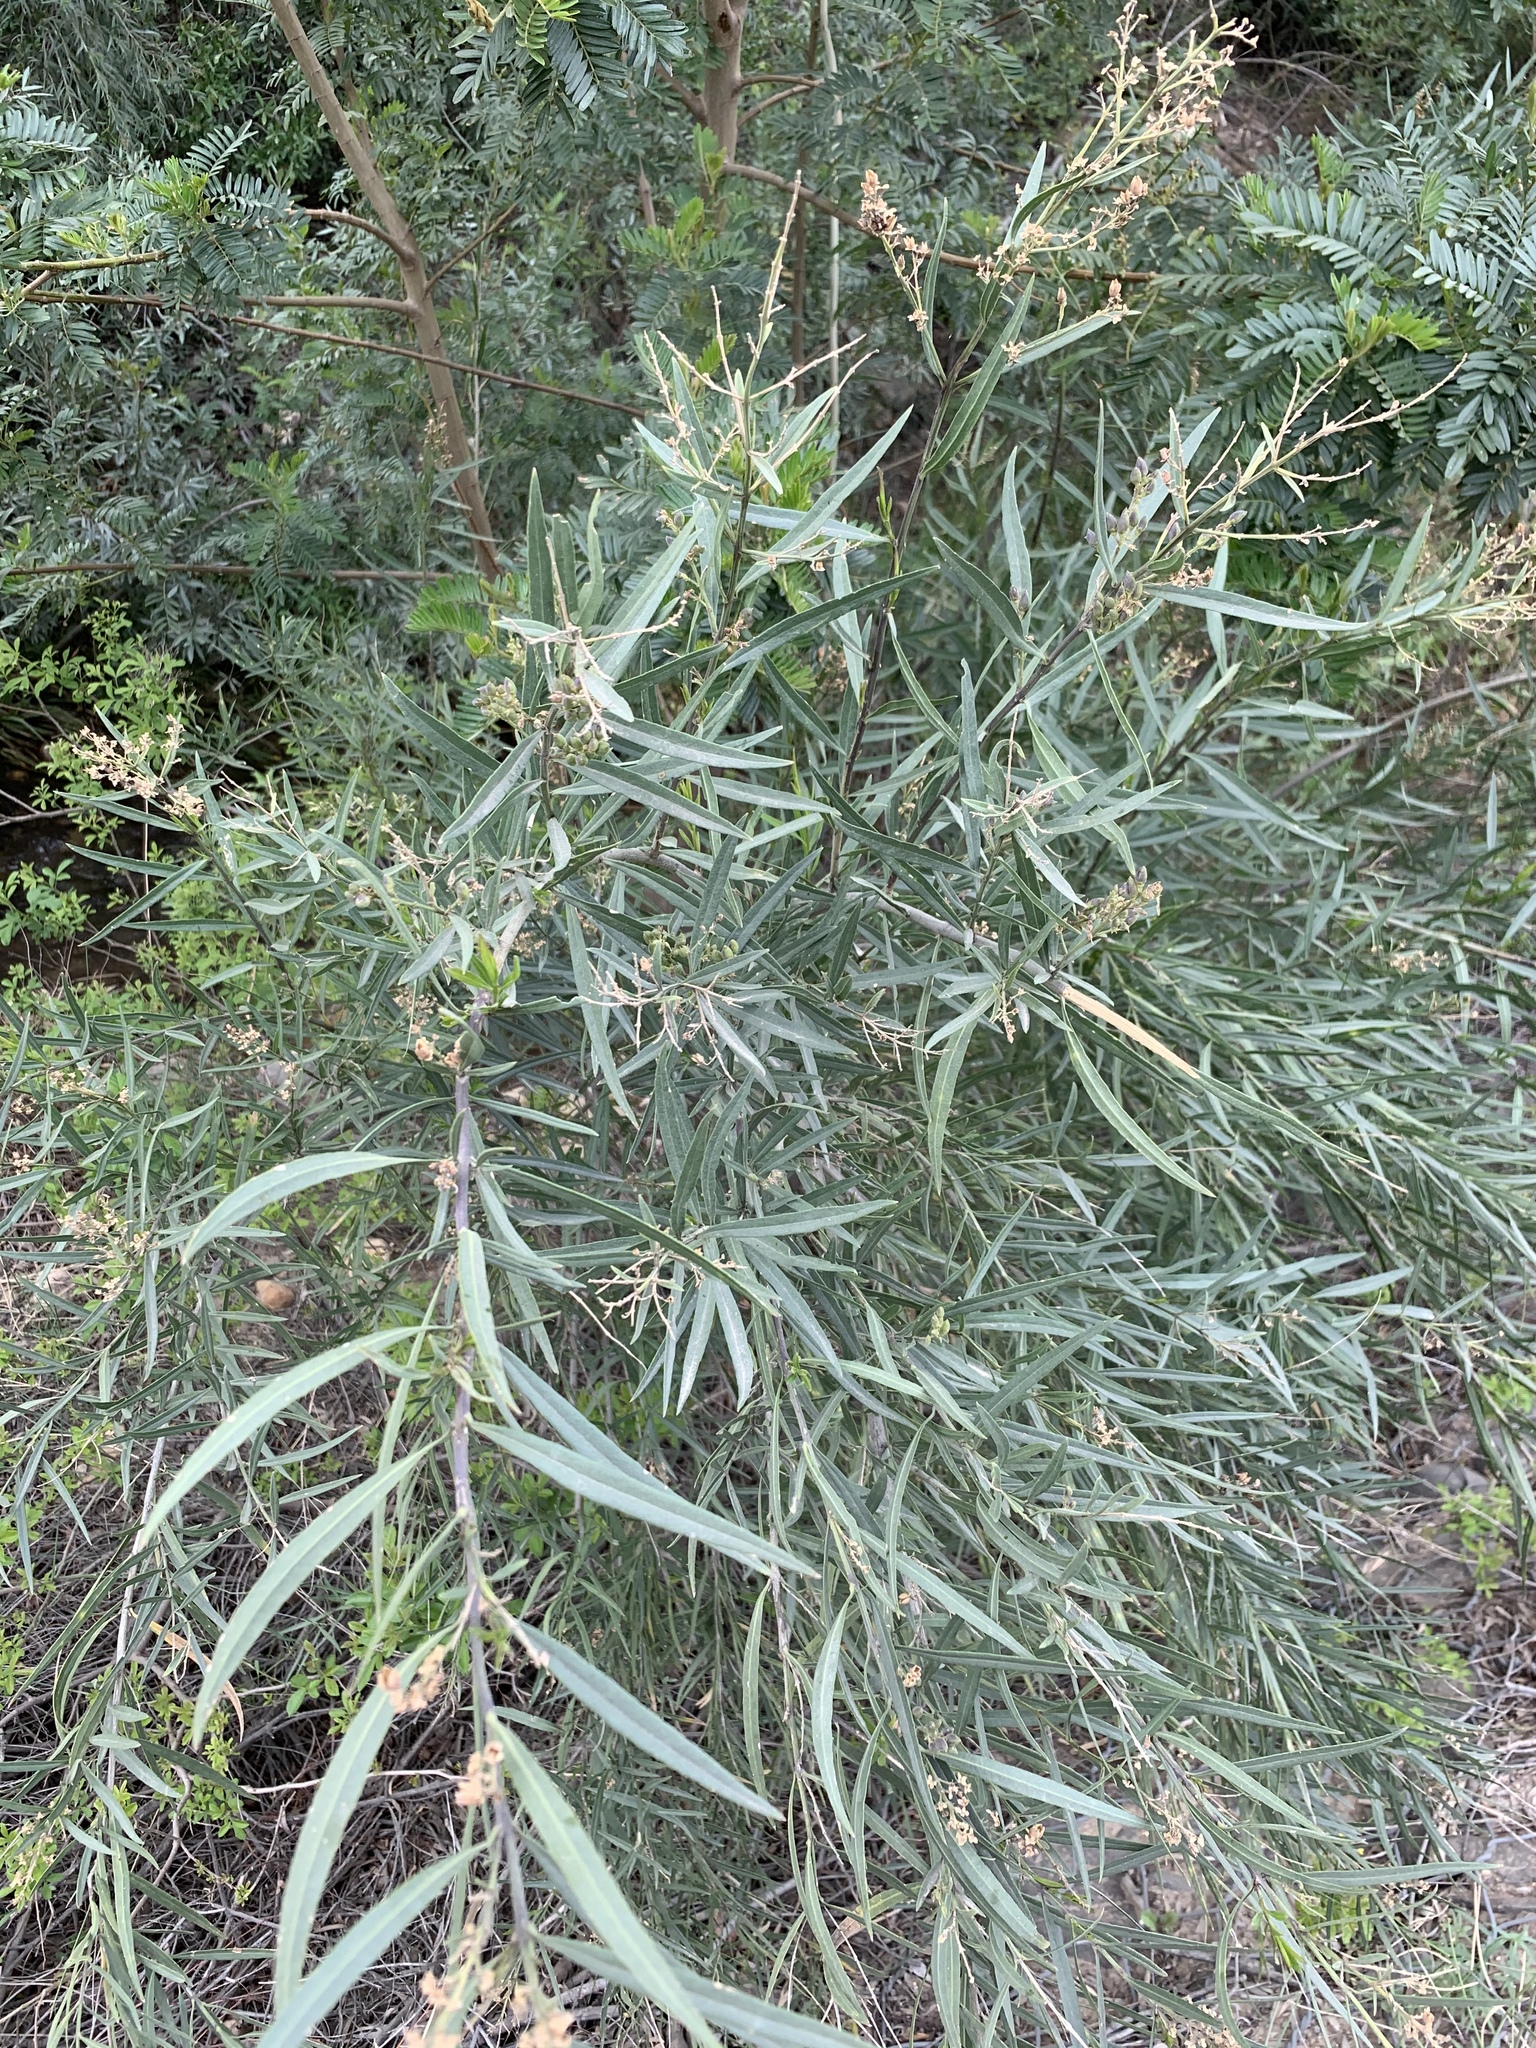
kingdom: Plantae
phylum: Tracheophyta
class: Magnoliopsida
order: Lamiales
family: Scrophulariaceae
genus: Freylinia
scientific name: Freylinia lanceolata
